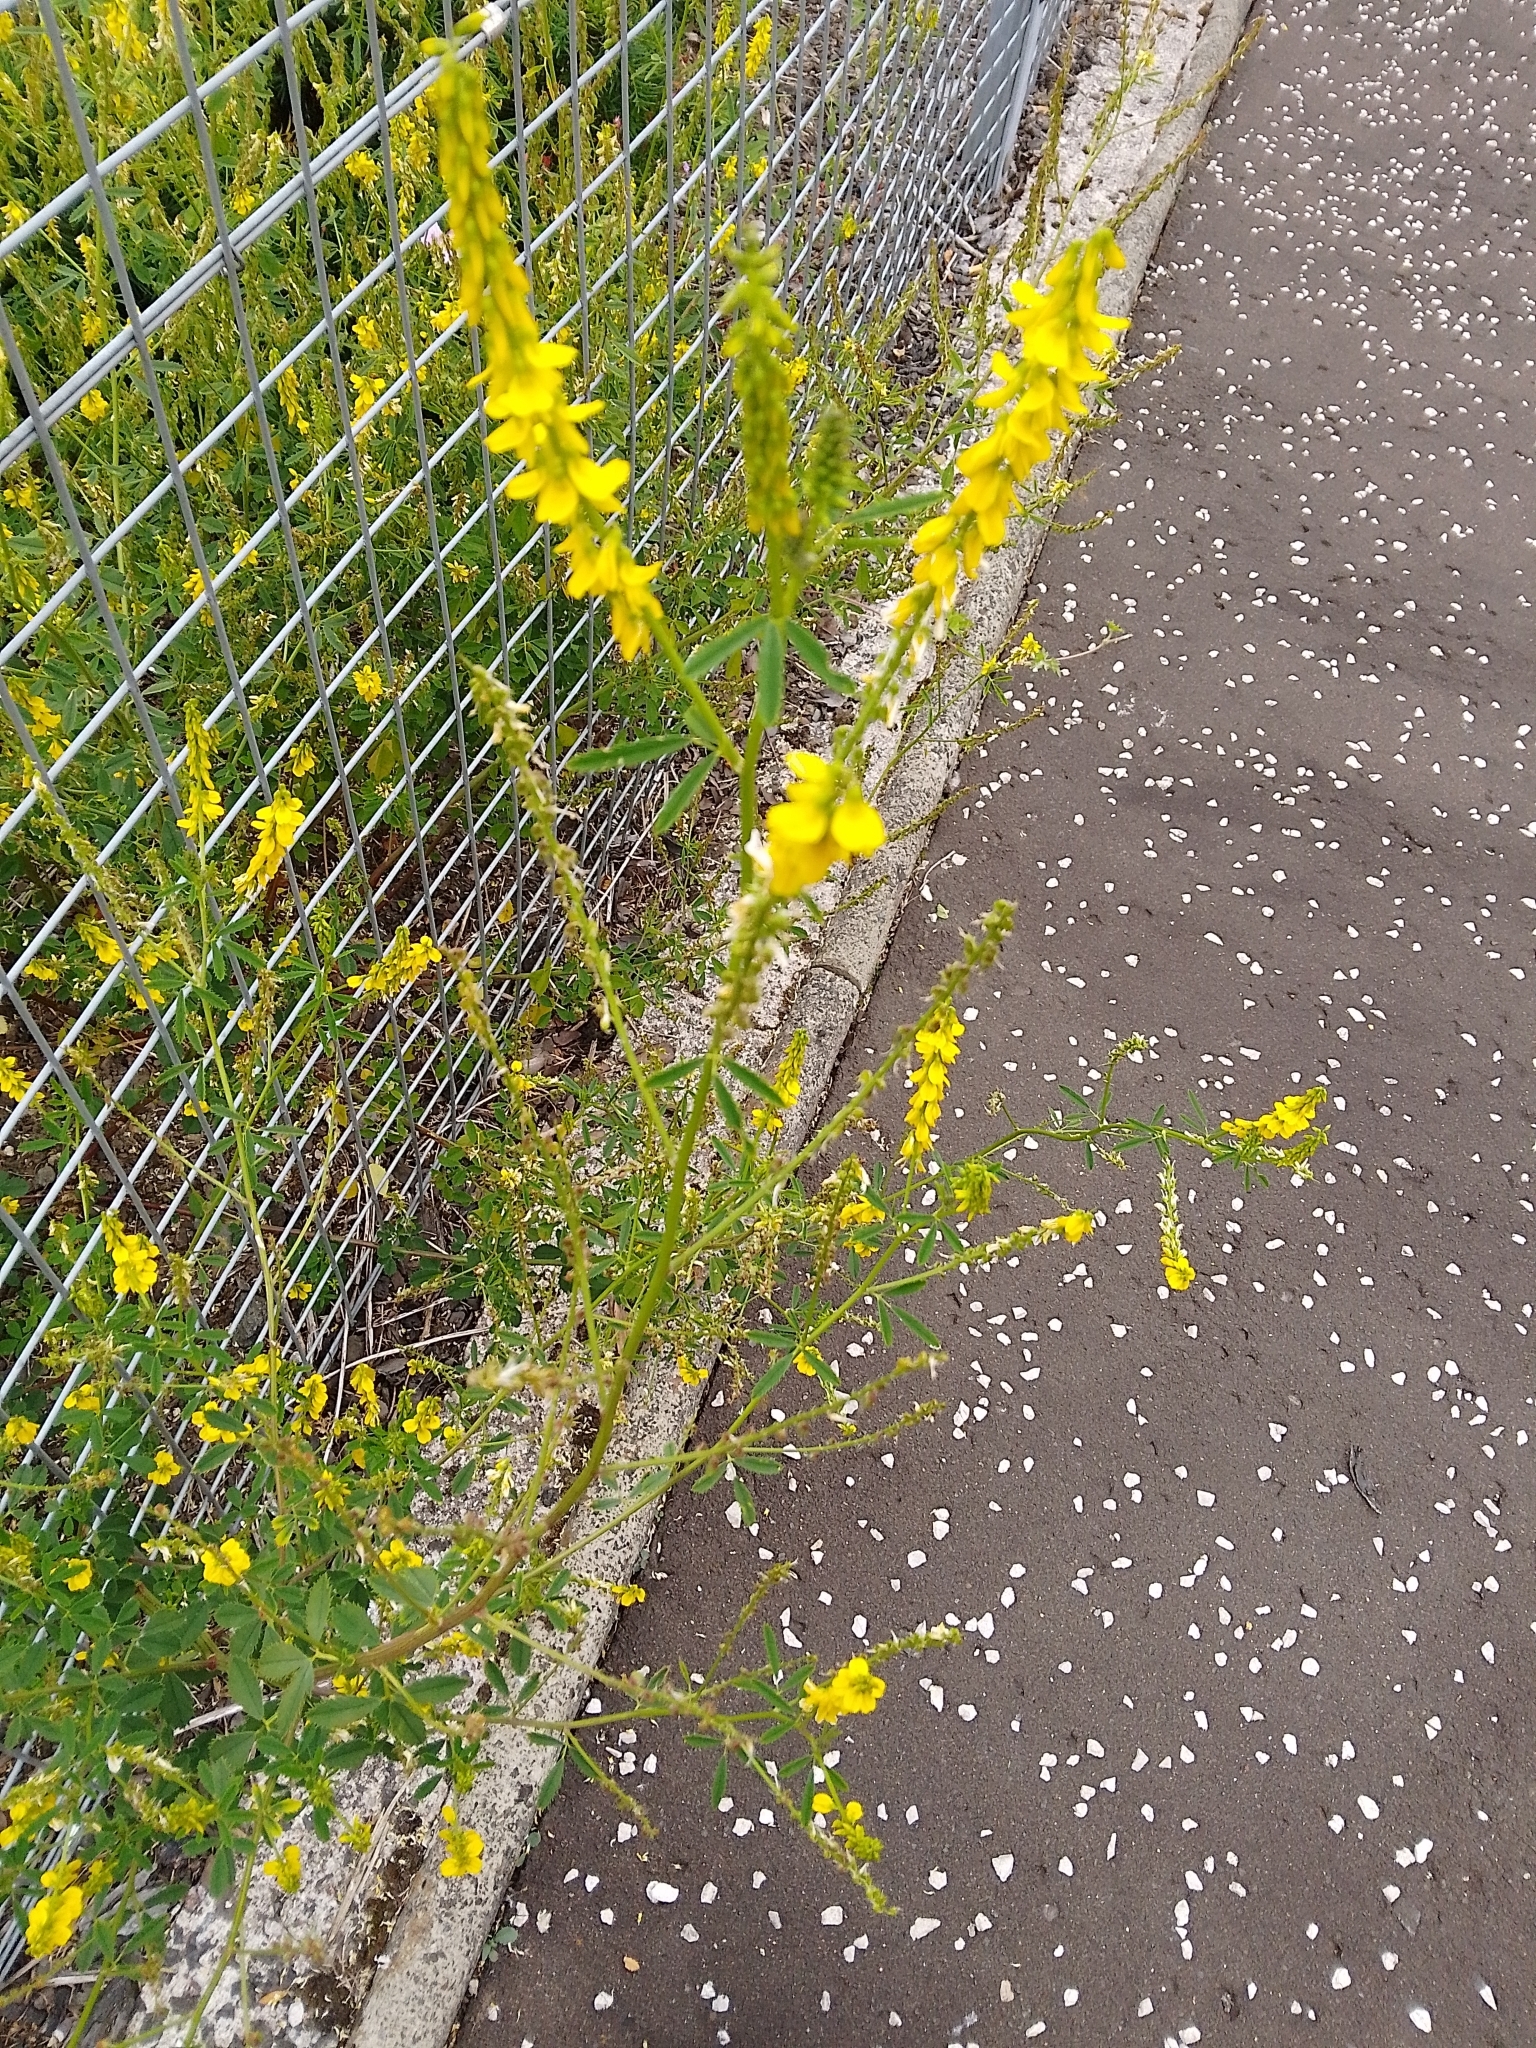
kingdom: Plantae
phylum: Tracheophyta
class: Magnoliopsida
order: Fabales
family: Fabaceae
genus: Melilotus
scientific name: Melilotus officinalis
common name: Sweetclover
